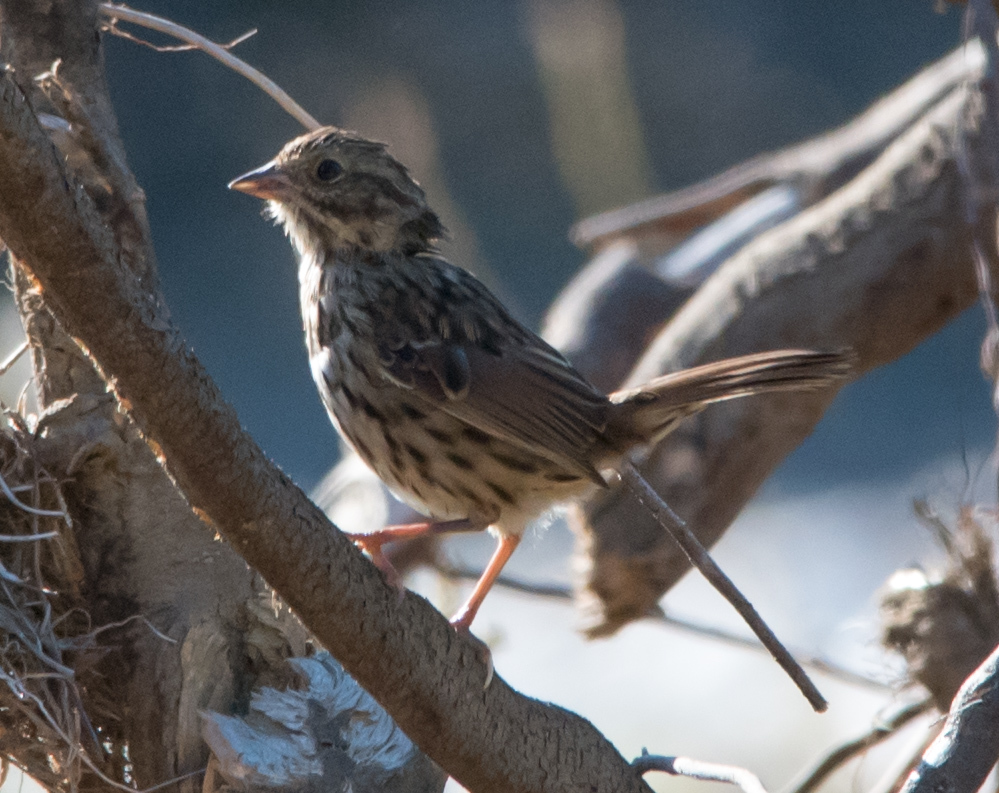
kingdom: Animalia
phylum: Chordata
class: Aves
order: Passeriformes
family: Passerellidae
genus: Melospiza
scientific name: Melospiza melodia
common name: Song sparrow
